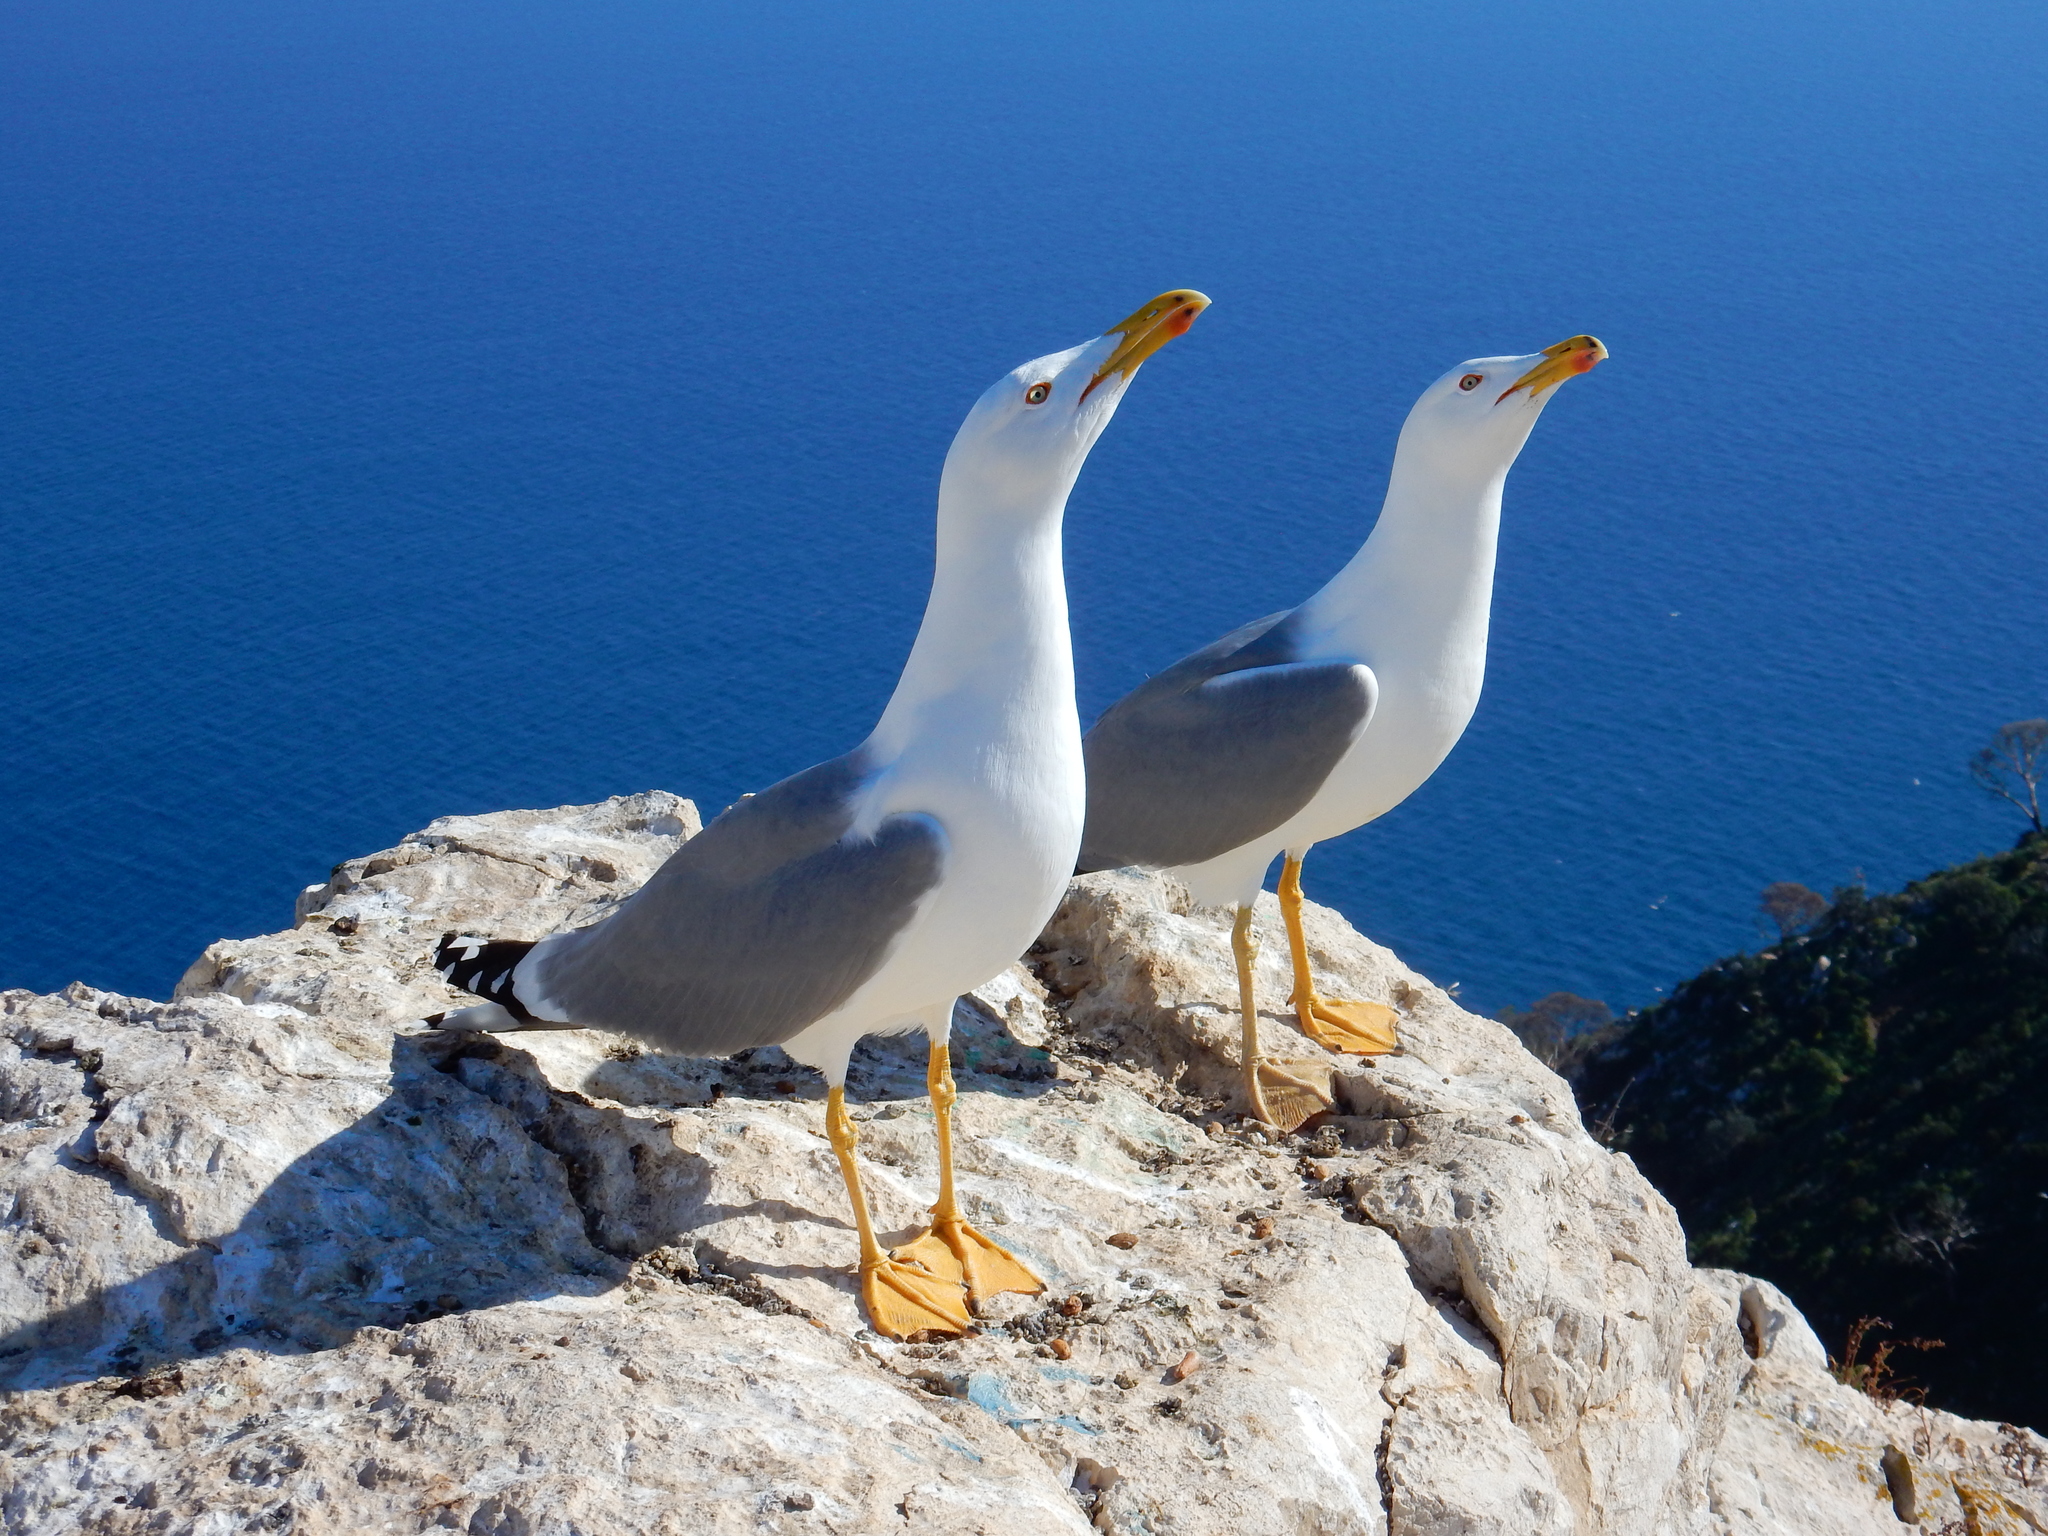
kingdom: Animalia
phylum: Chordata
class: Aves
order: Charadriiformes
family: Laridae
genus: Larus
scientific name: Larus michahellis
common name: Yellow-legged gull
